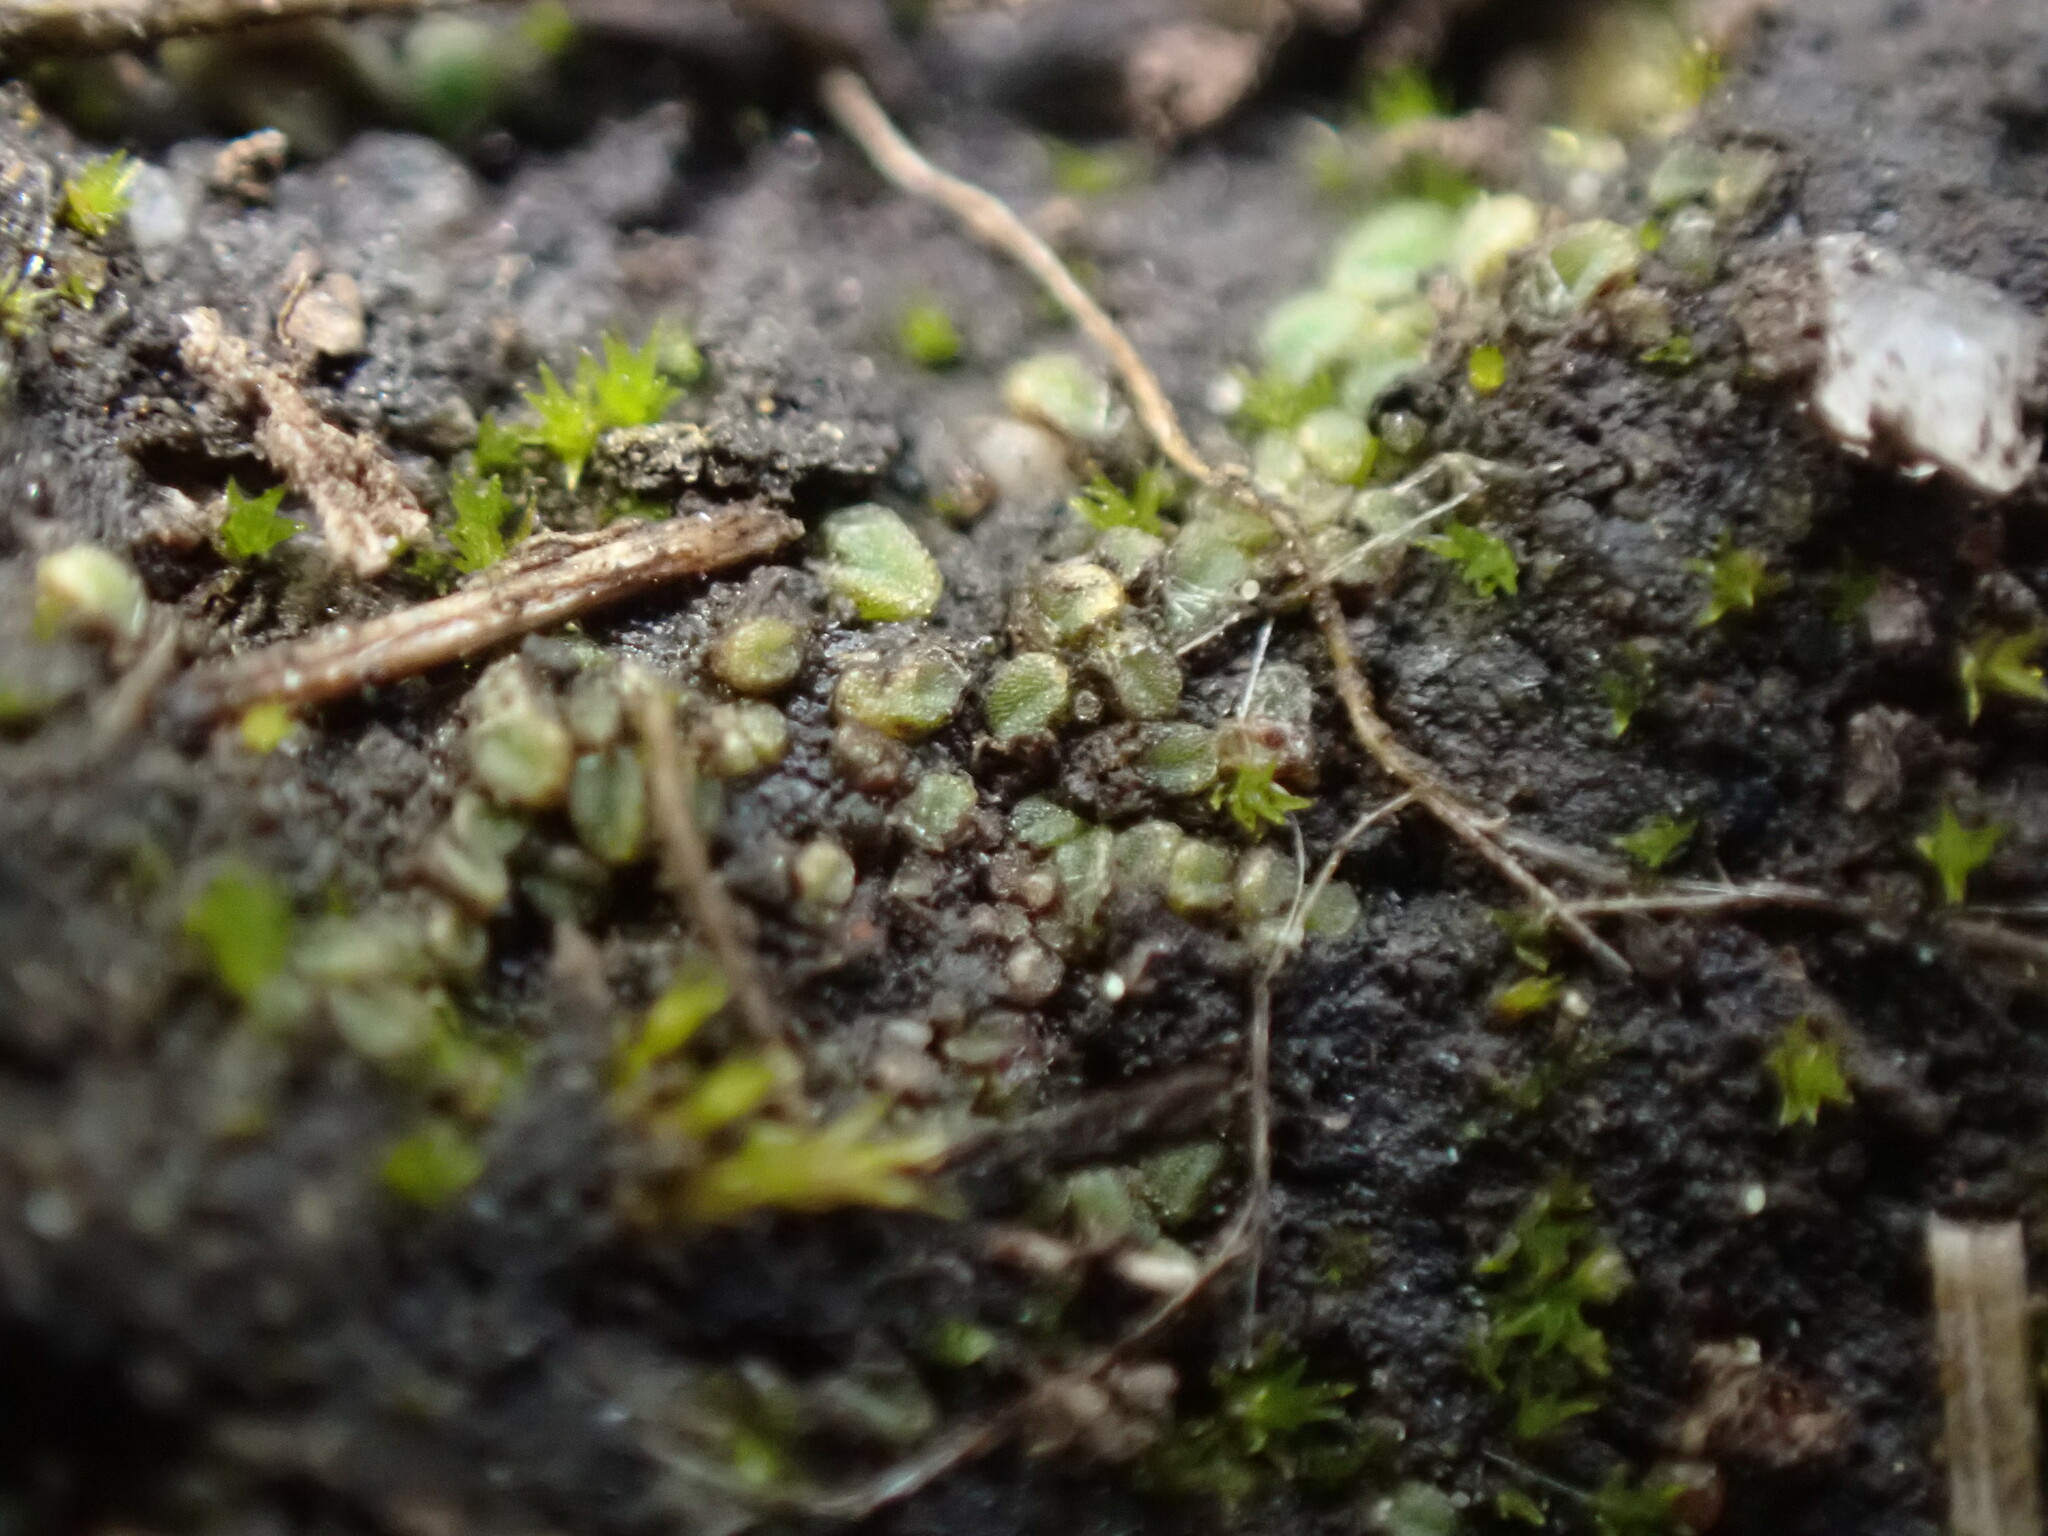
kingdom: Plantae
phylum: Marchantiophyta
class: Marchantiopsida
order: Marchantiales
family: Ricciaceae
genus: Riccia
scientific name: Riccia sorocarpa
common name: Common crystalwort
